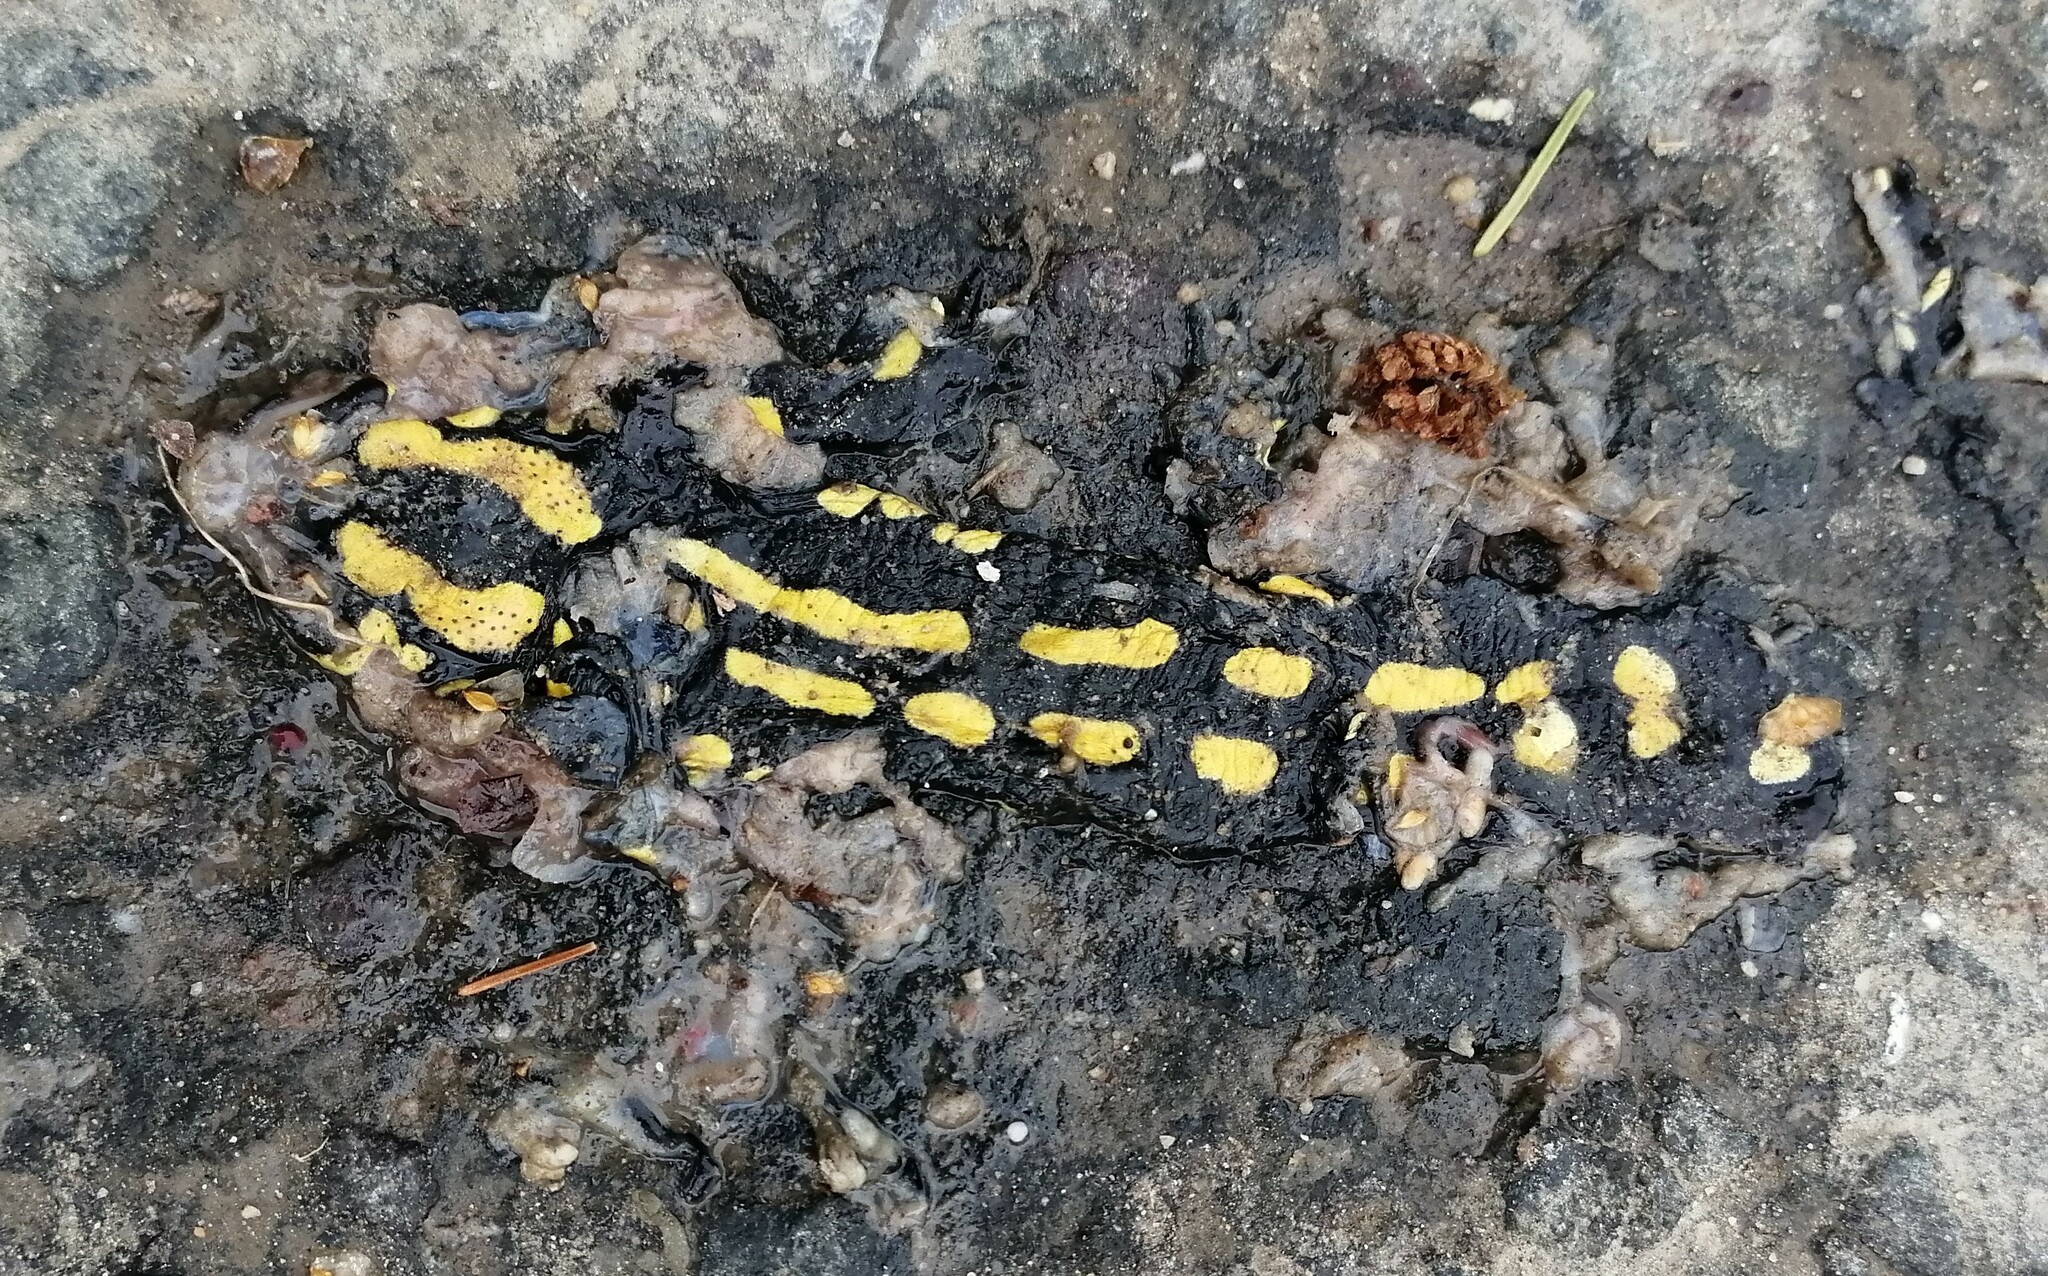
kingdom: Animalia
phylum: Chordata
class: Amphibia
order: Caudata
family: Salamandridae
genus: Salamandra
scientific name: Salamandra salamandra
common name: Fire salamander
